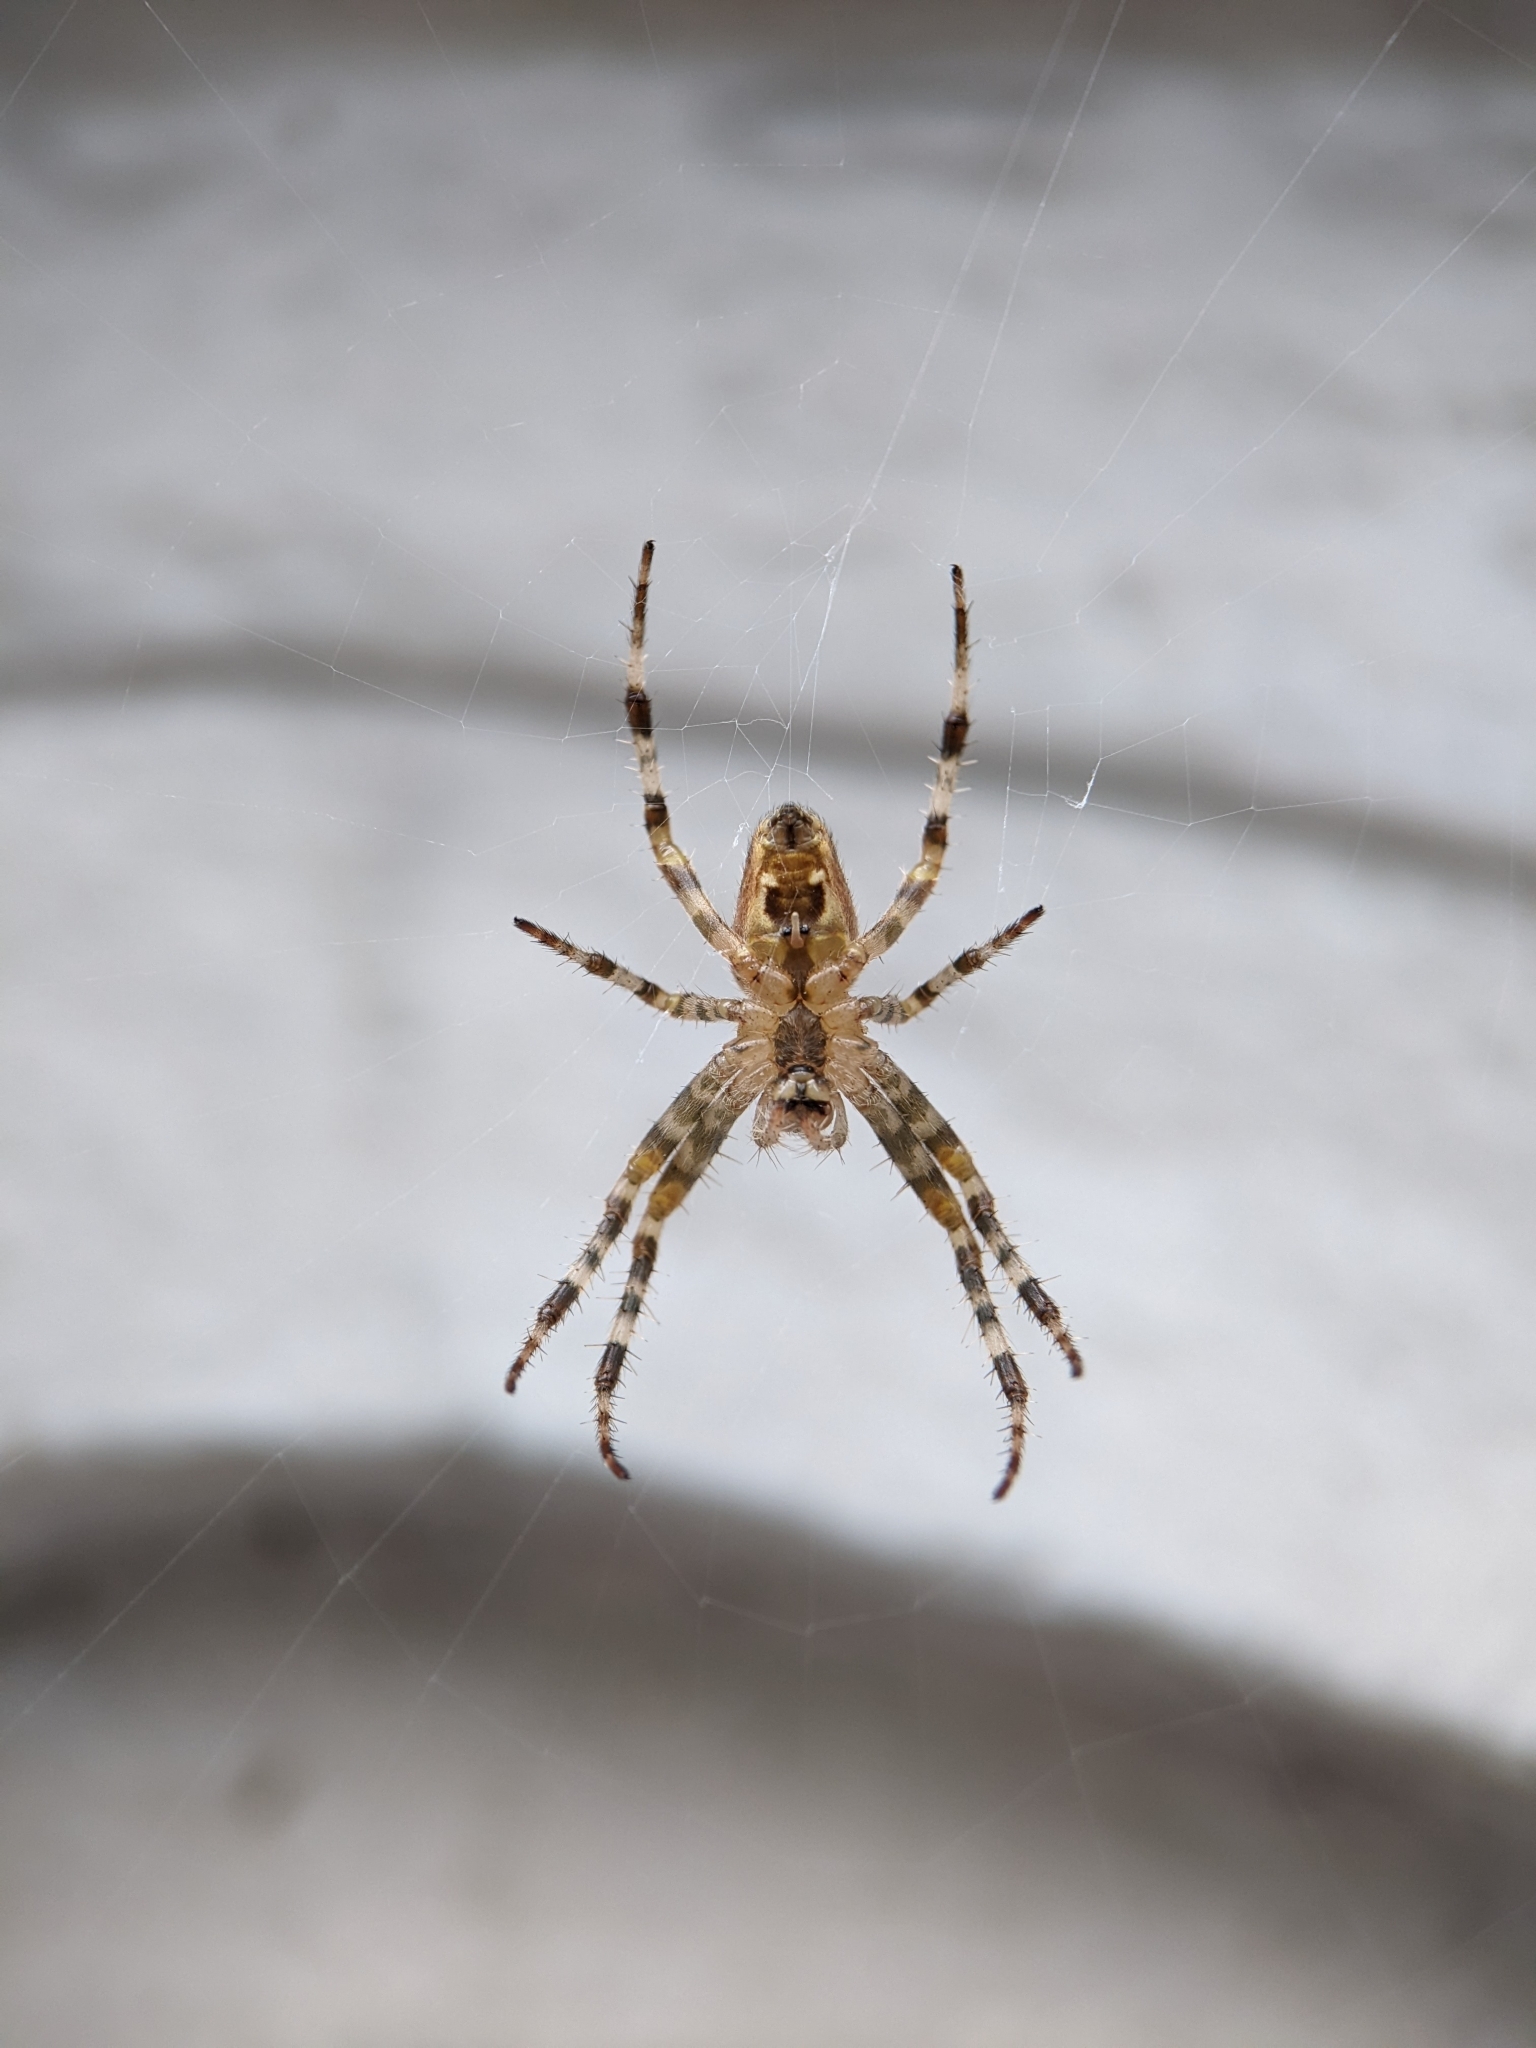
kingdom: Animalia
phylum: Arthropoda
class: Arachnida
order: Araneae
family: Araneidae
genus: Araneus
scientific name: Araneus diadematus
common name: Cross orbweaver
